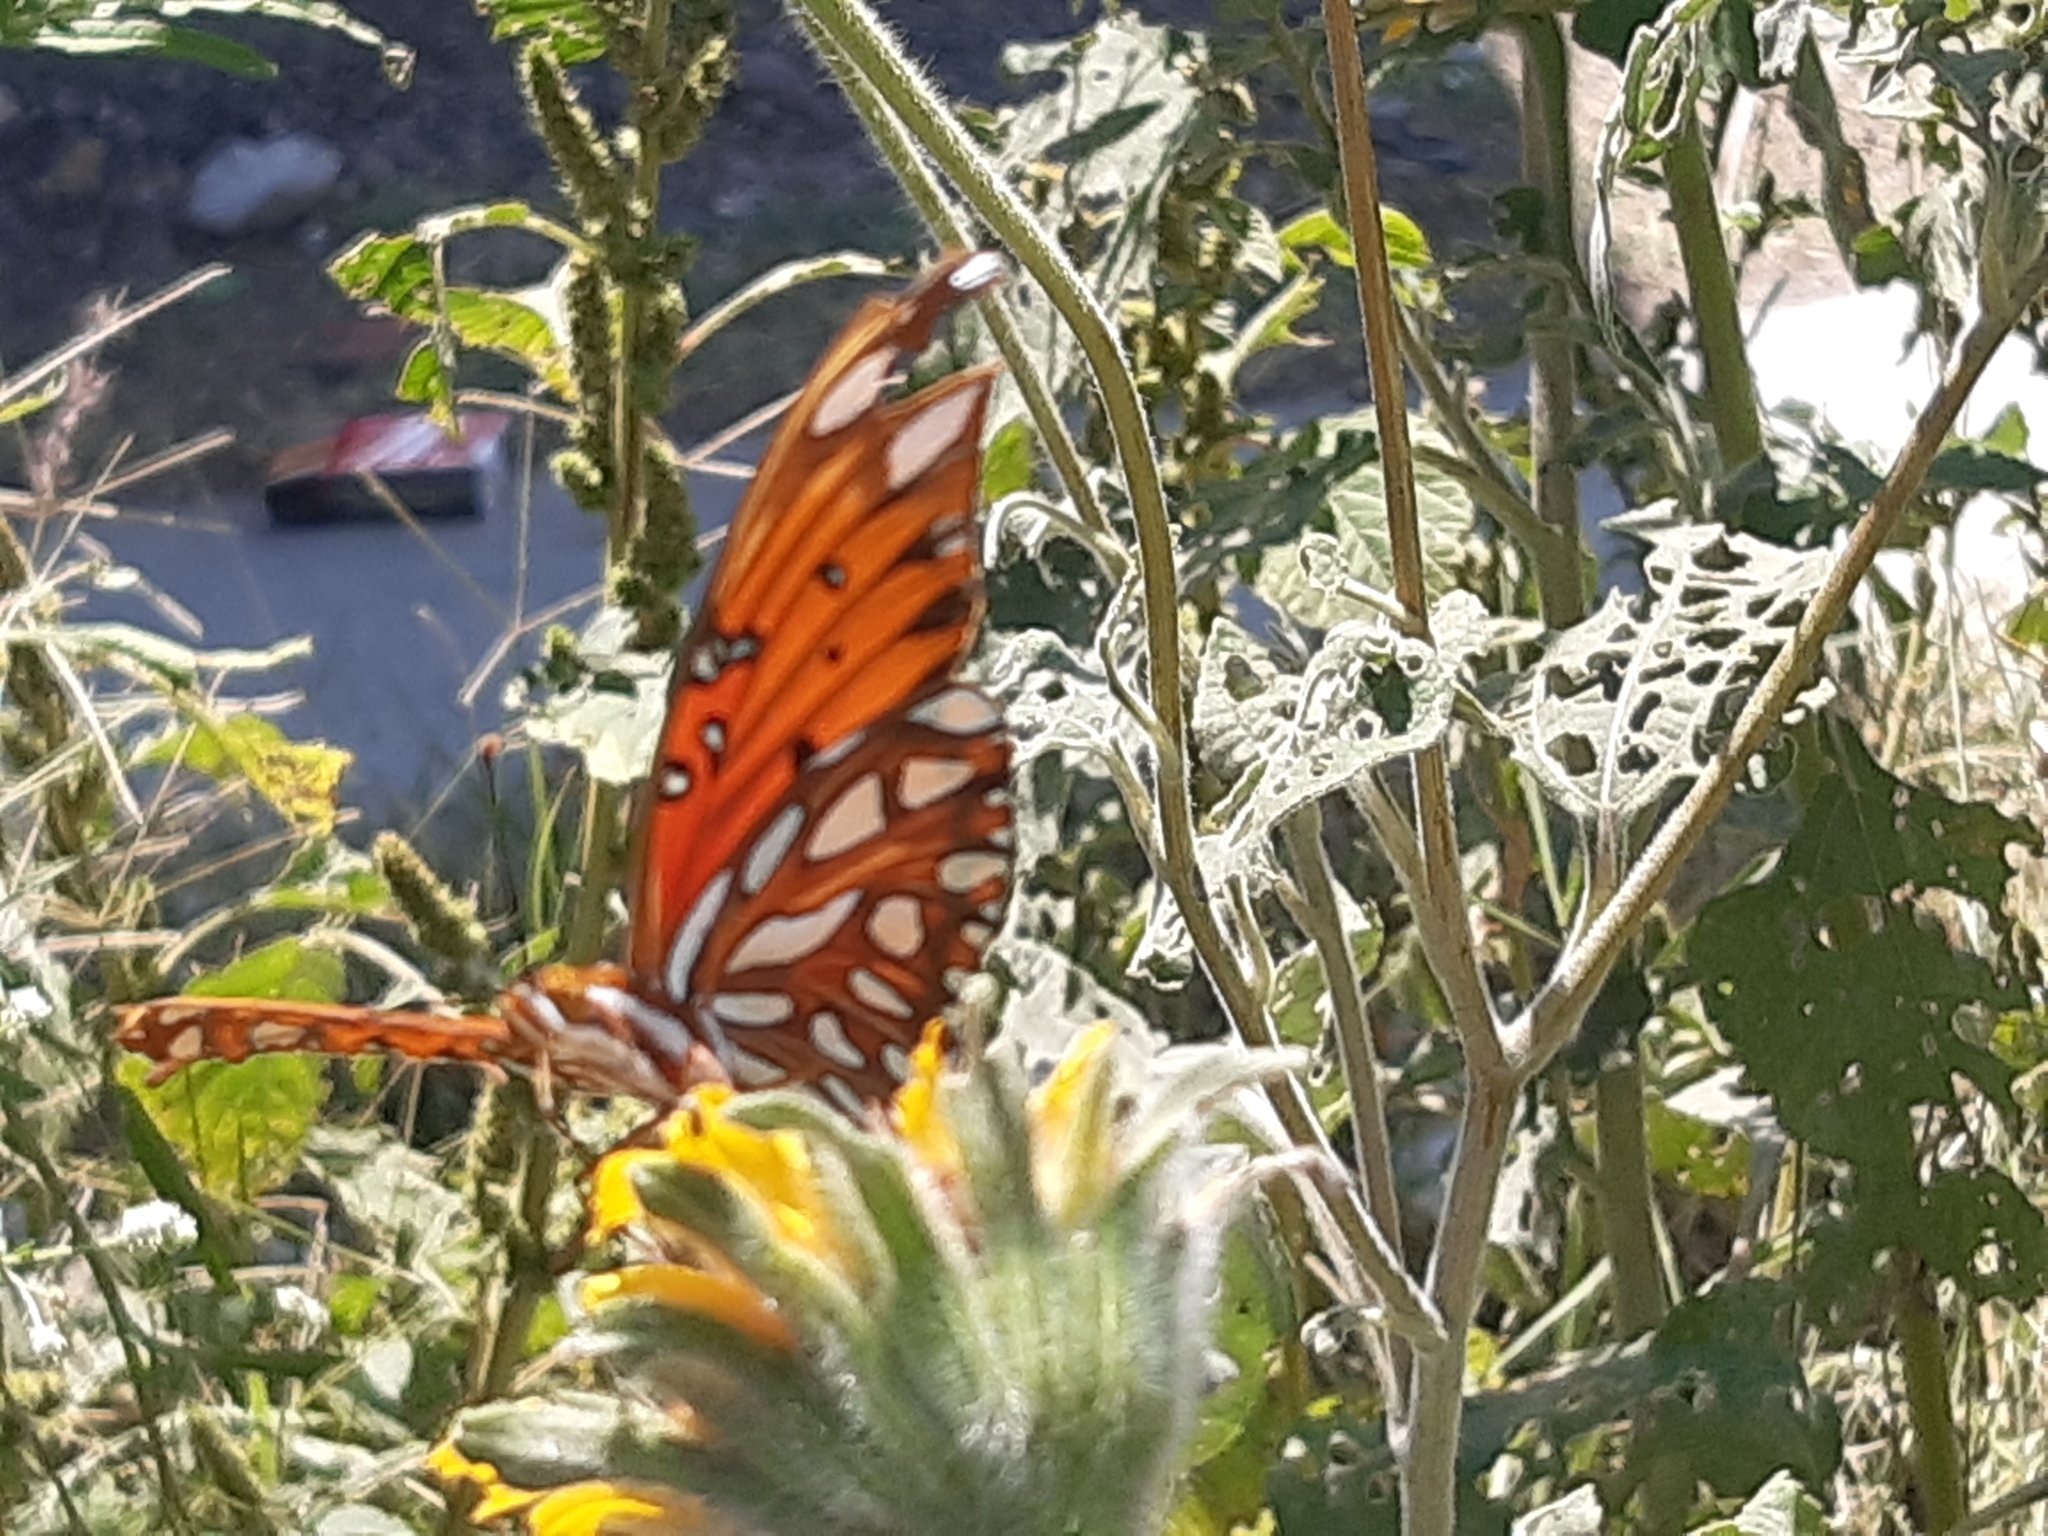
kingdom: Animalia
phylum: Arthropoda
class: Insecta
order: Lepidoptera
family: Nymphalidae
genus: Dione
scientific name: Dione vanillae
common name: Gulf fritillary
